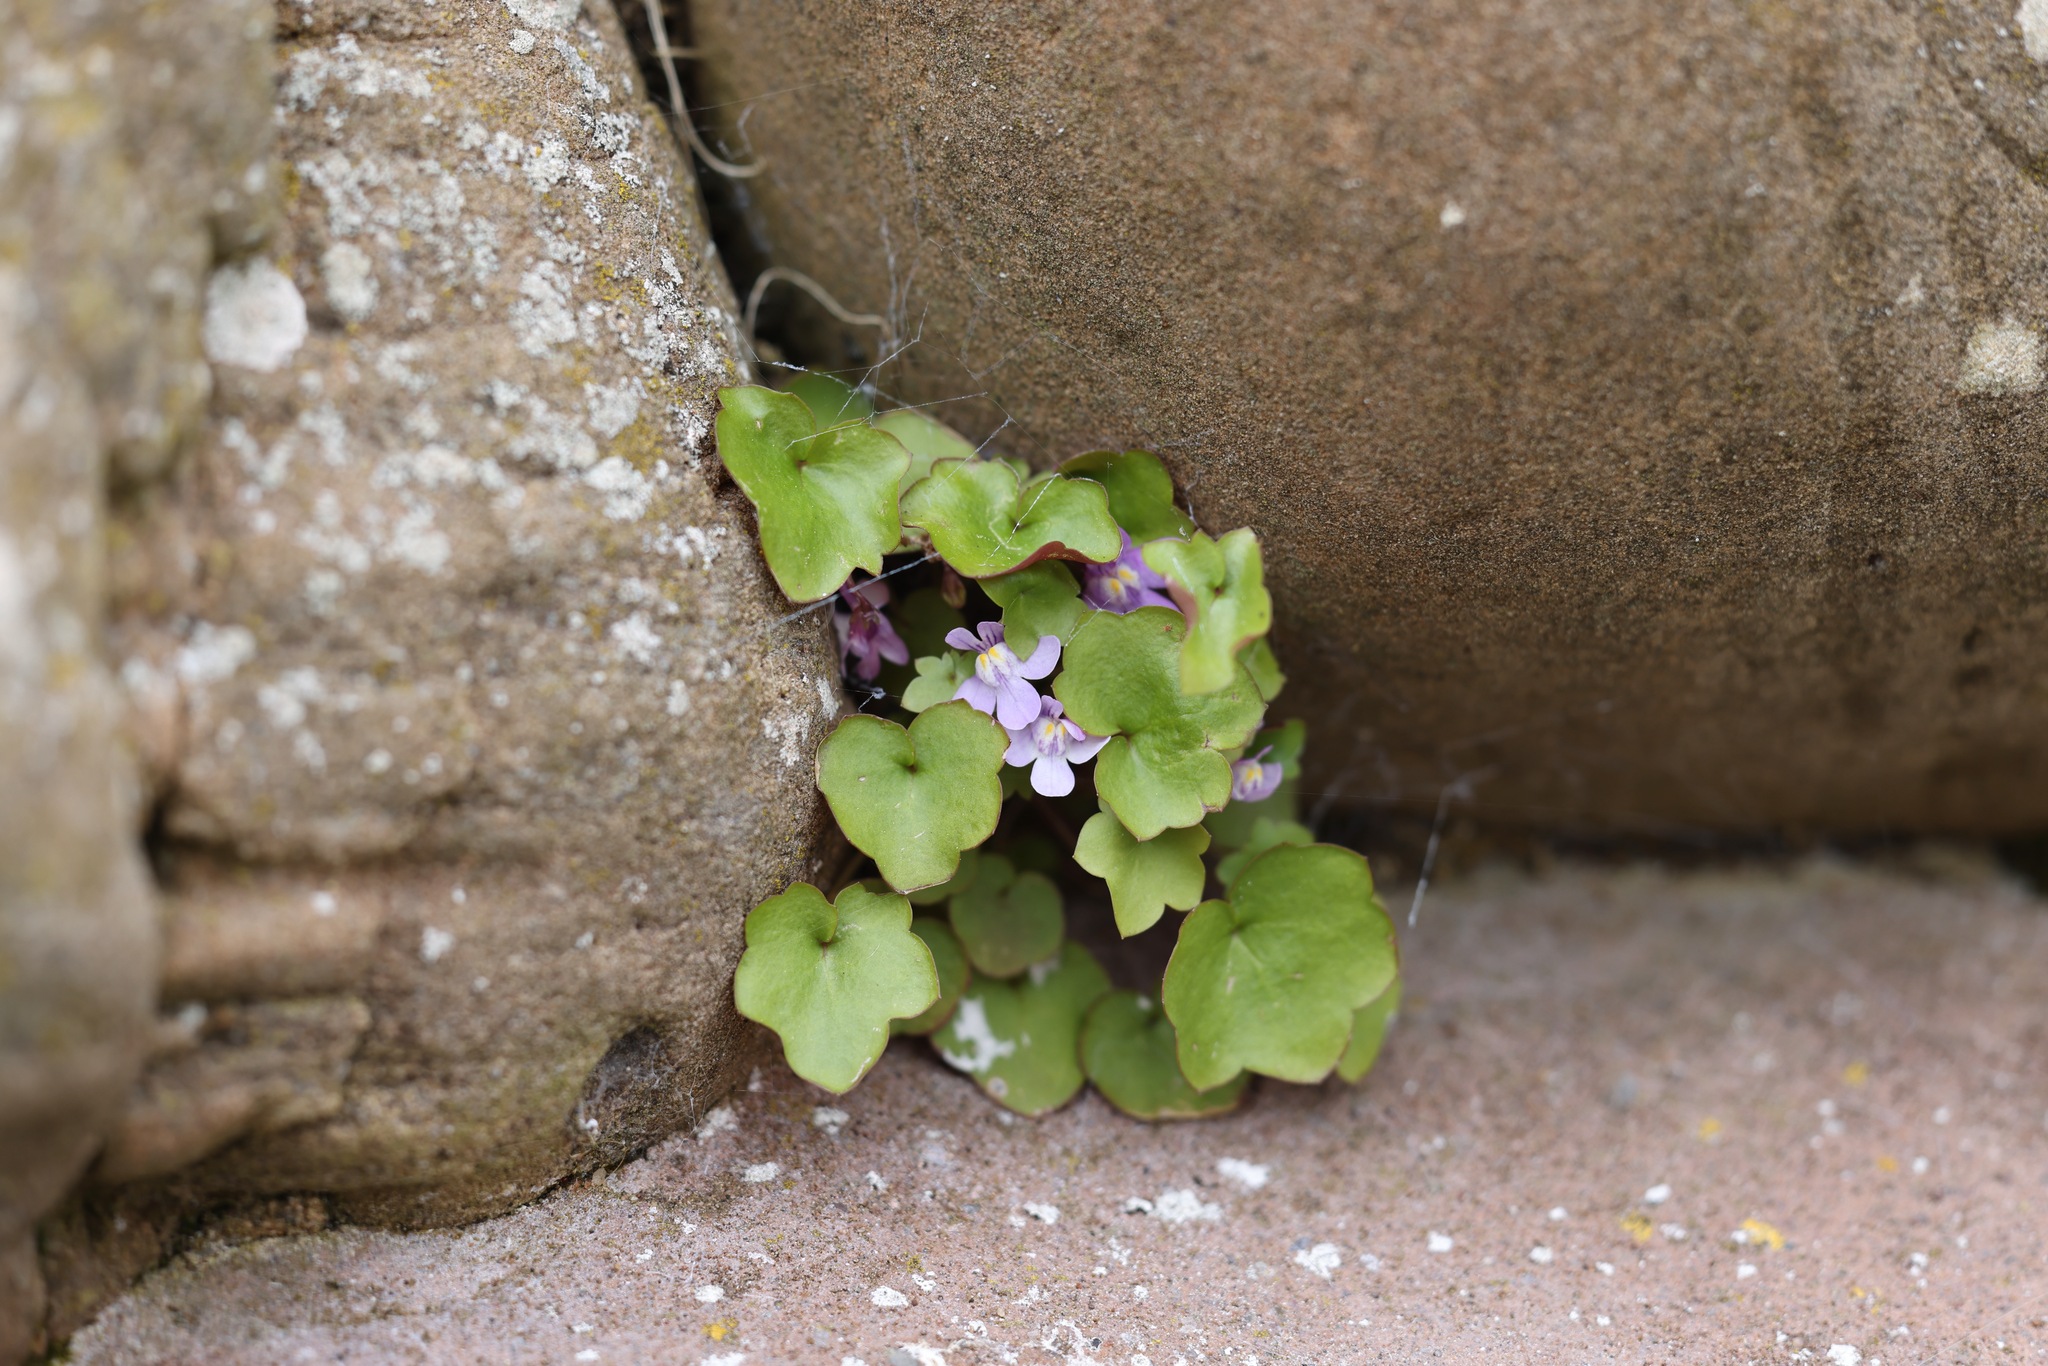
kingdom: Plantae
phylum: Tracheophyta
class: Magnoliopsida
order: Lamiales
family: Plantaginaceae
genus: Cymbalaria
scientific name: Cymbalaria muralis
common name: Ivy-leaved toadflax
